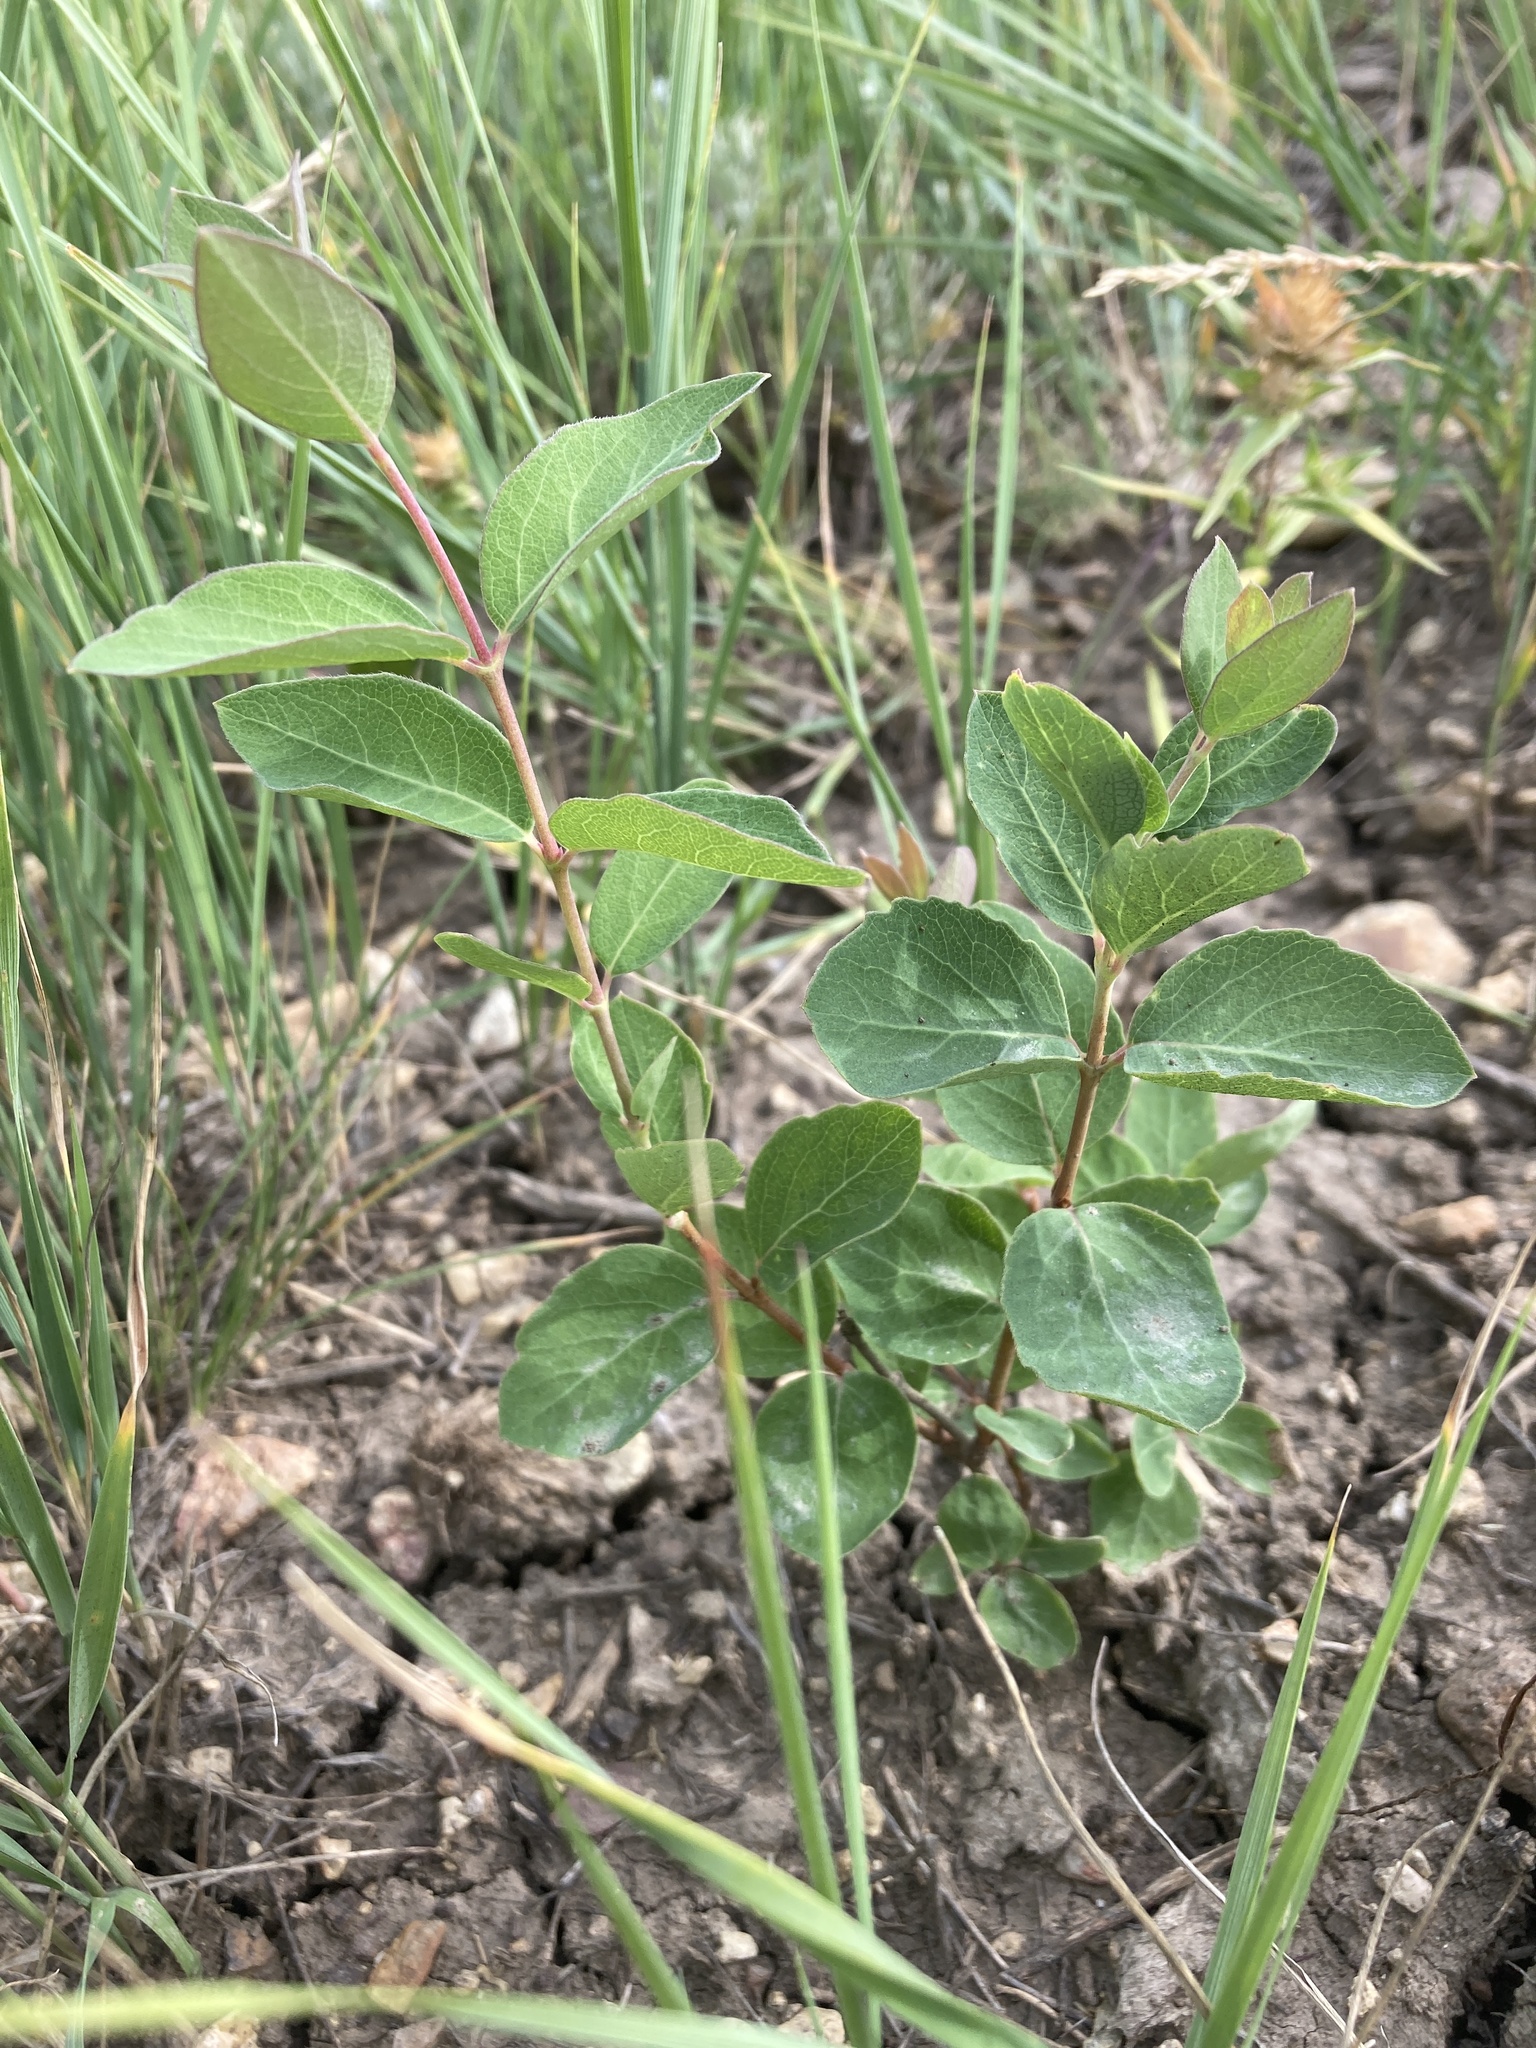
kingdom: Plantae
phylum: Tracheophyta
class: Magnoliopsida
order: Dipsacales
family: Caprifoliaceae
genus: Symphoricarpos
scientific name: Symphoricarpos occidentalis
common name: Wolfberry
